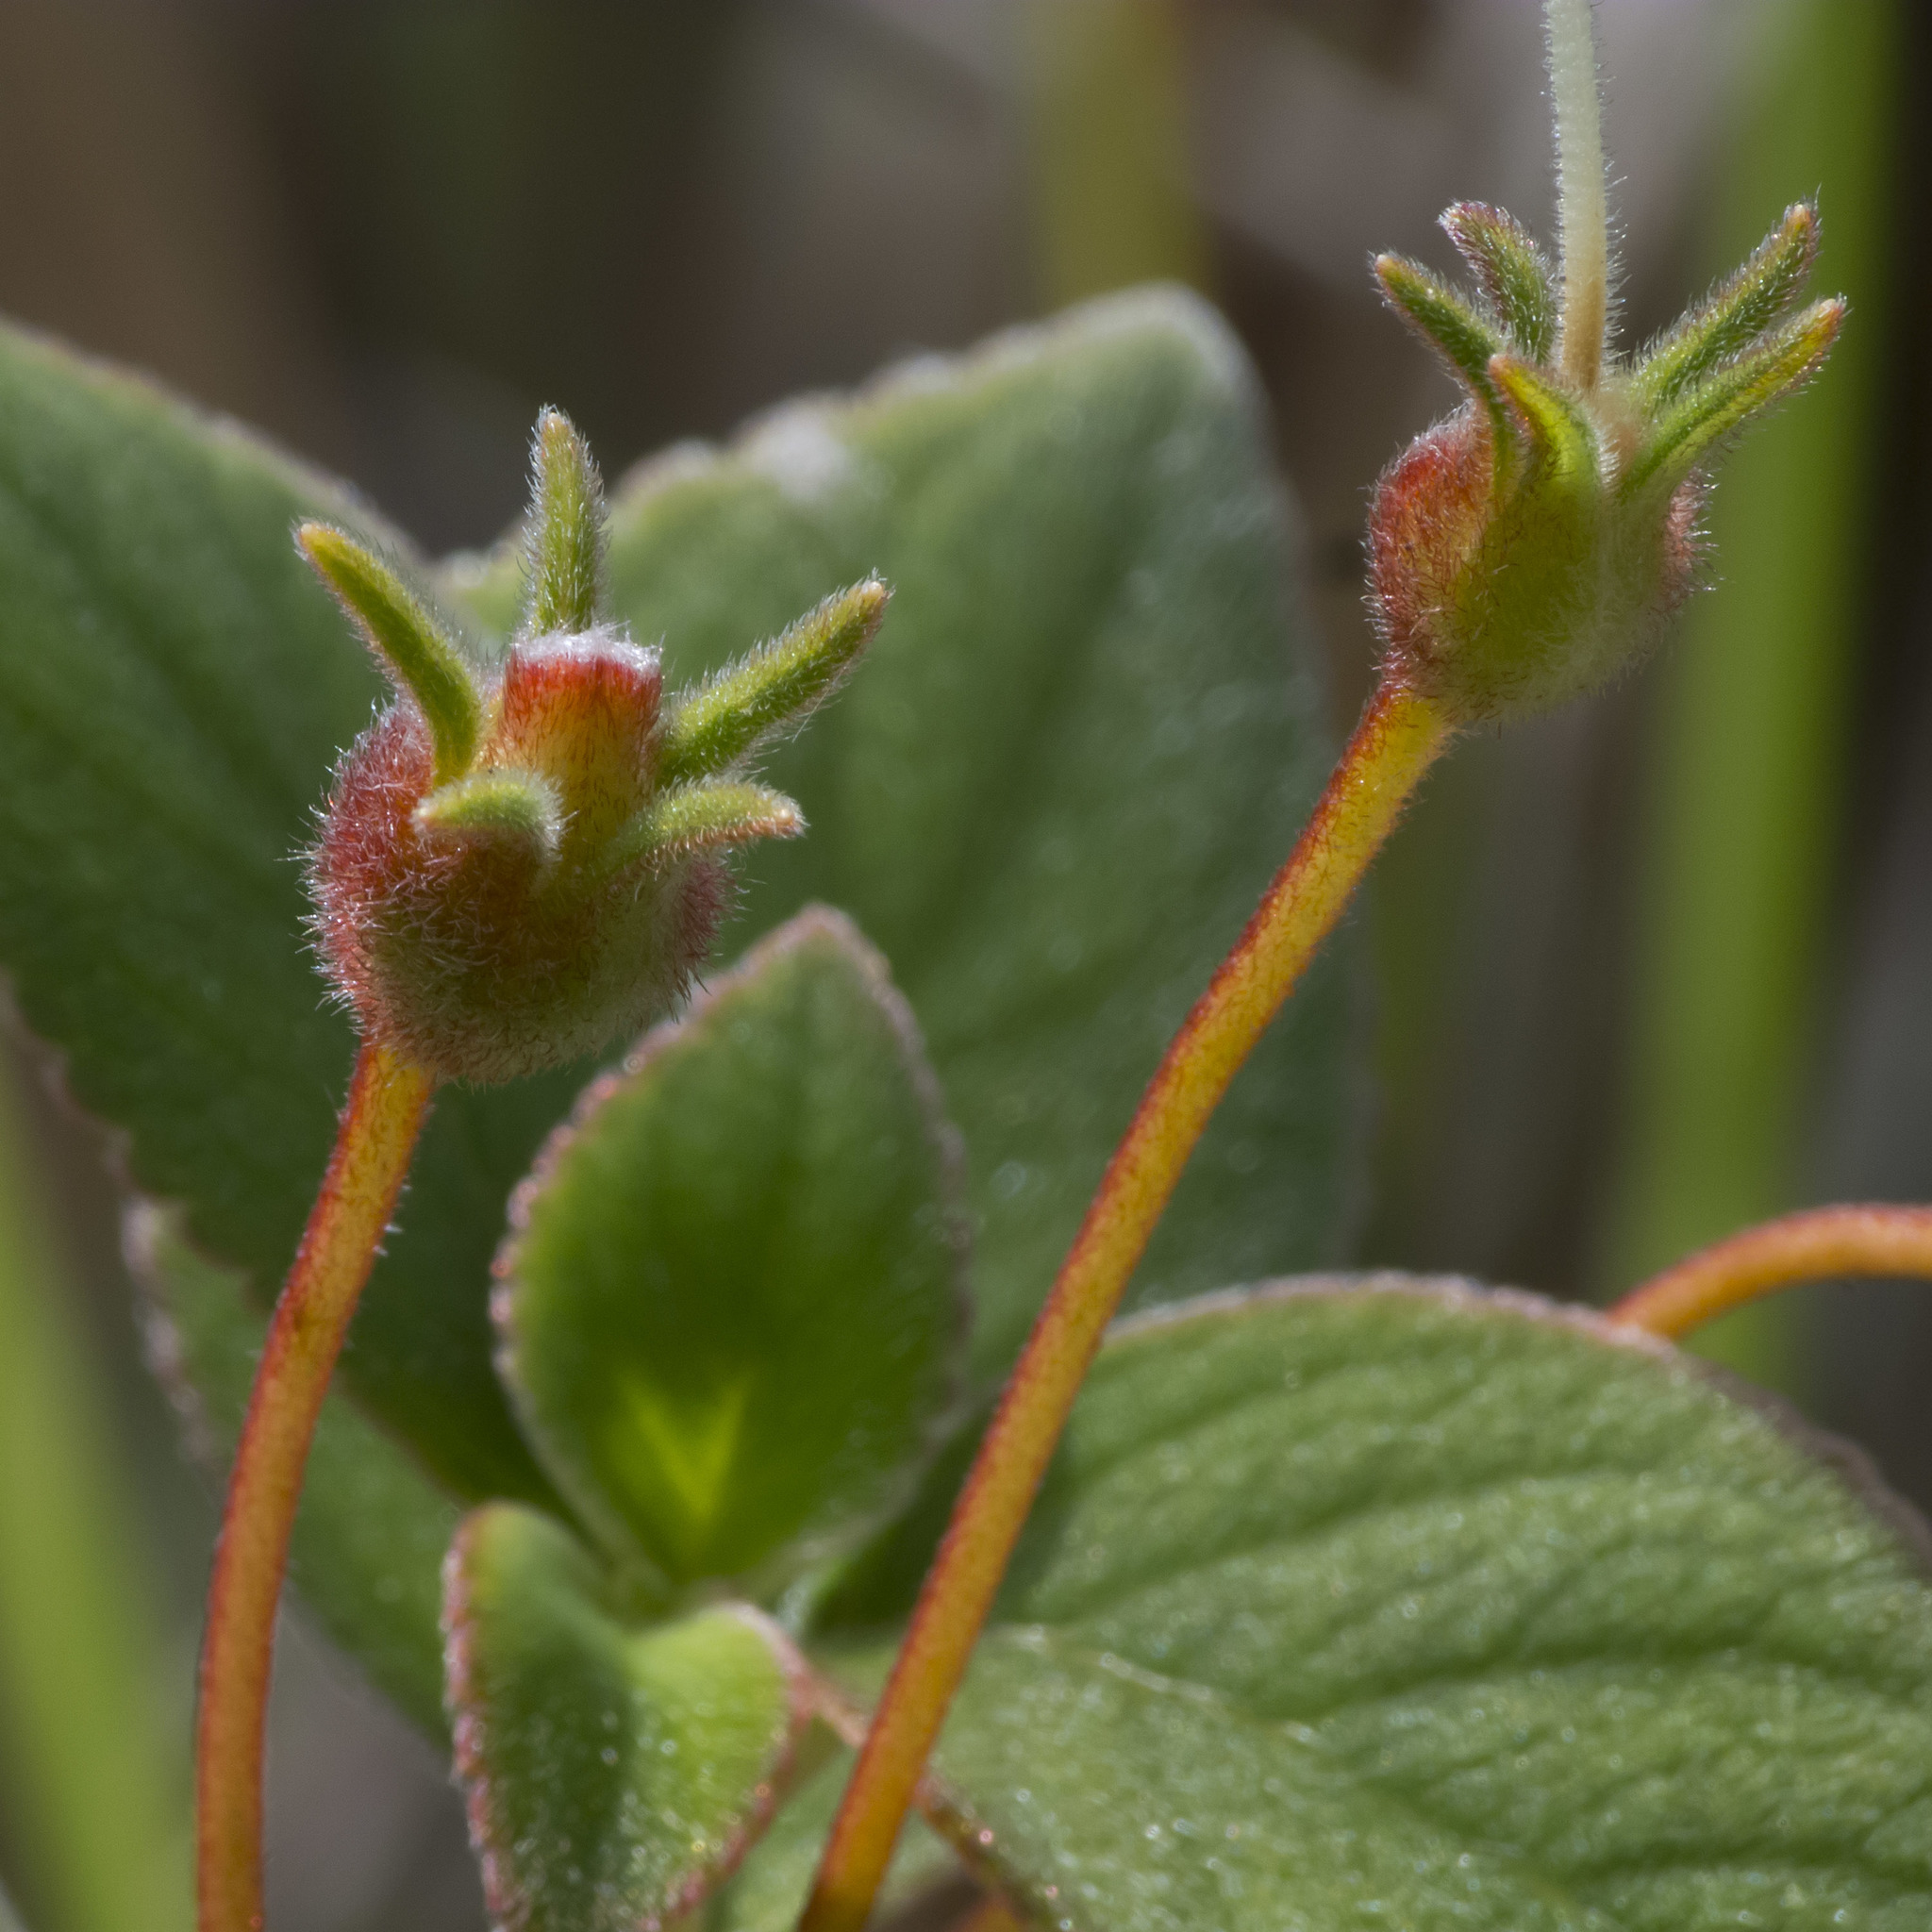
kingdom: Plantae
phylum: Tracheophyta
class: Magnoliopsida
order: Lamiales
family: Gesneriaceae
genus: Kohleria
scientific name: Kohleria hirsuta
